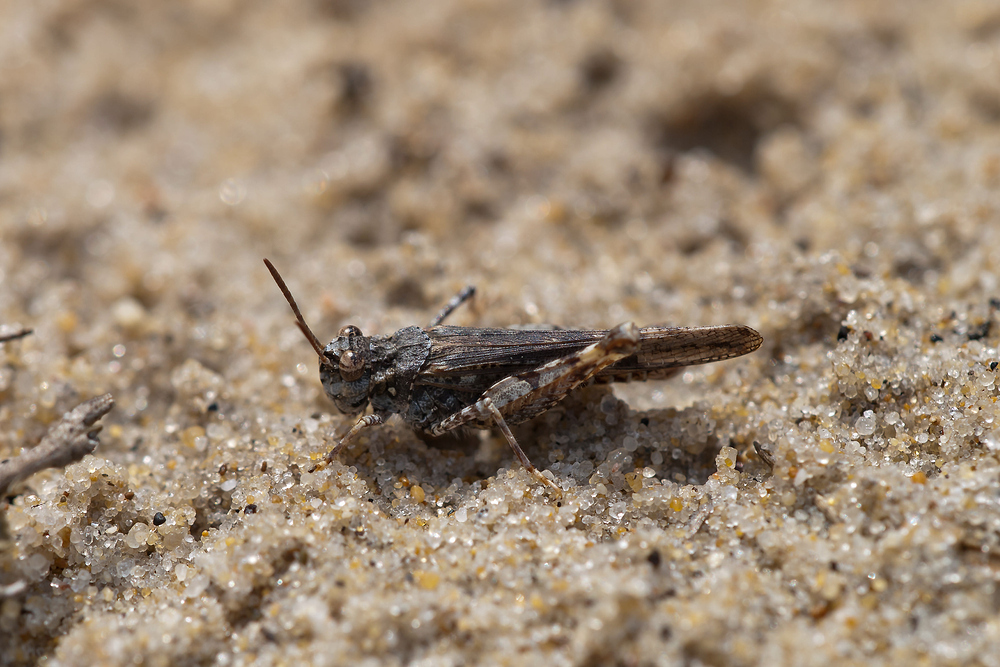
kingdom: Animalia
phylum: Arthropoda
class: Insecta
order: Orthoptera
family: Acrididae
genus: Acrotylus
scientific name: Acrotylus insubricus
